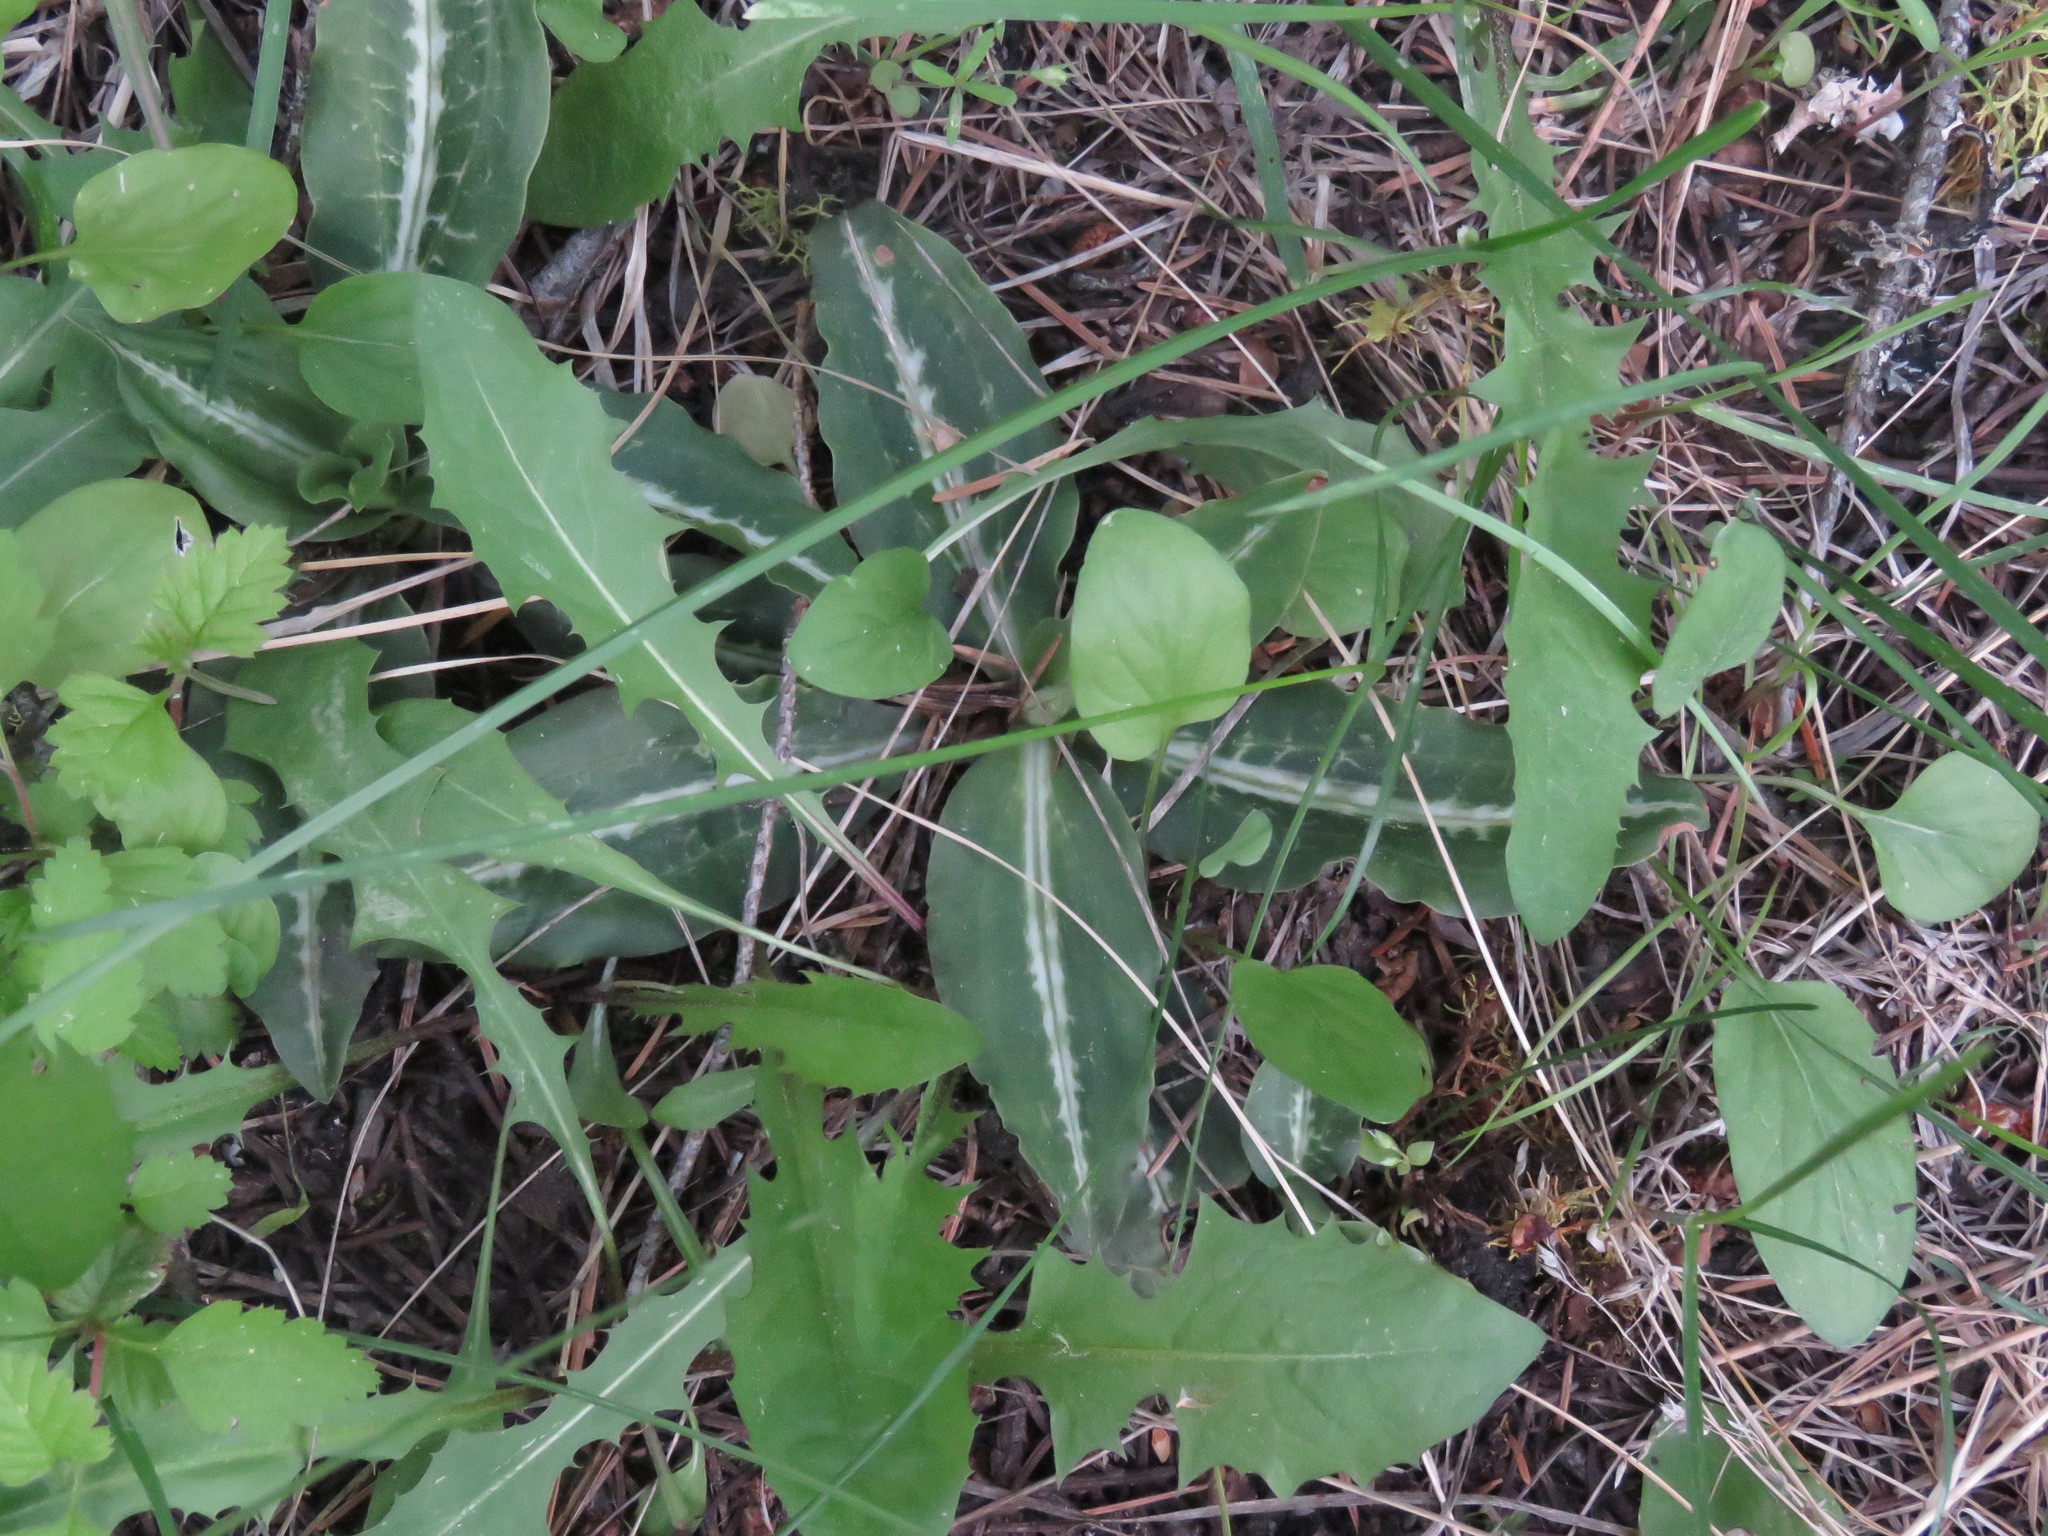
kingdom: Plantae
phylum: Tracheophyta
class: Liliopsida
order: Asparagales
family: Orchidaceae
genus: Goodyera
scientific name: Goodyera oblongifolia
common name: Giant rattlesnake-plantain
